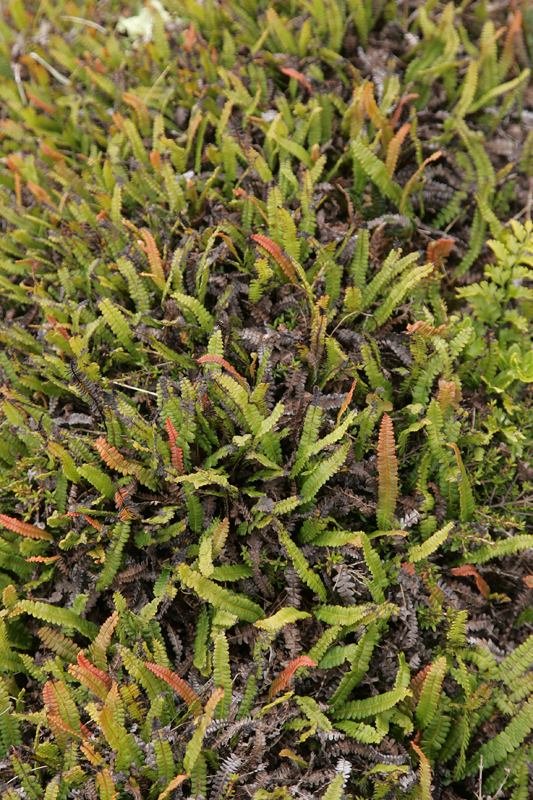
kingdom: Plantae
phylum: Tracheophyta
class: Polypodiopsida
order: Polypodiales
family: Blechnaceae
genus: Austroblechnum
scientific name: Austroblechnum penna-marina
